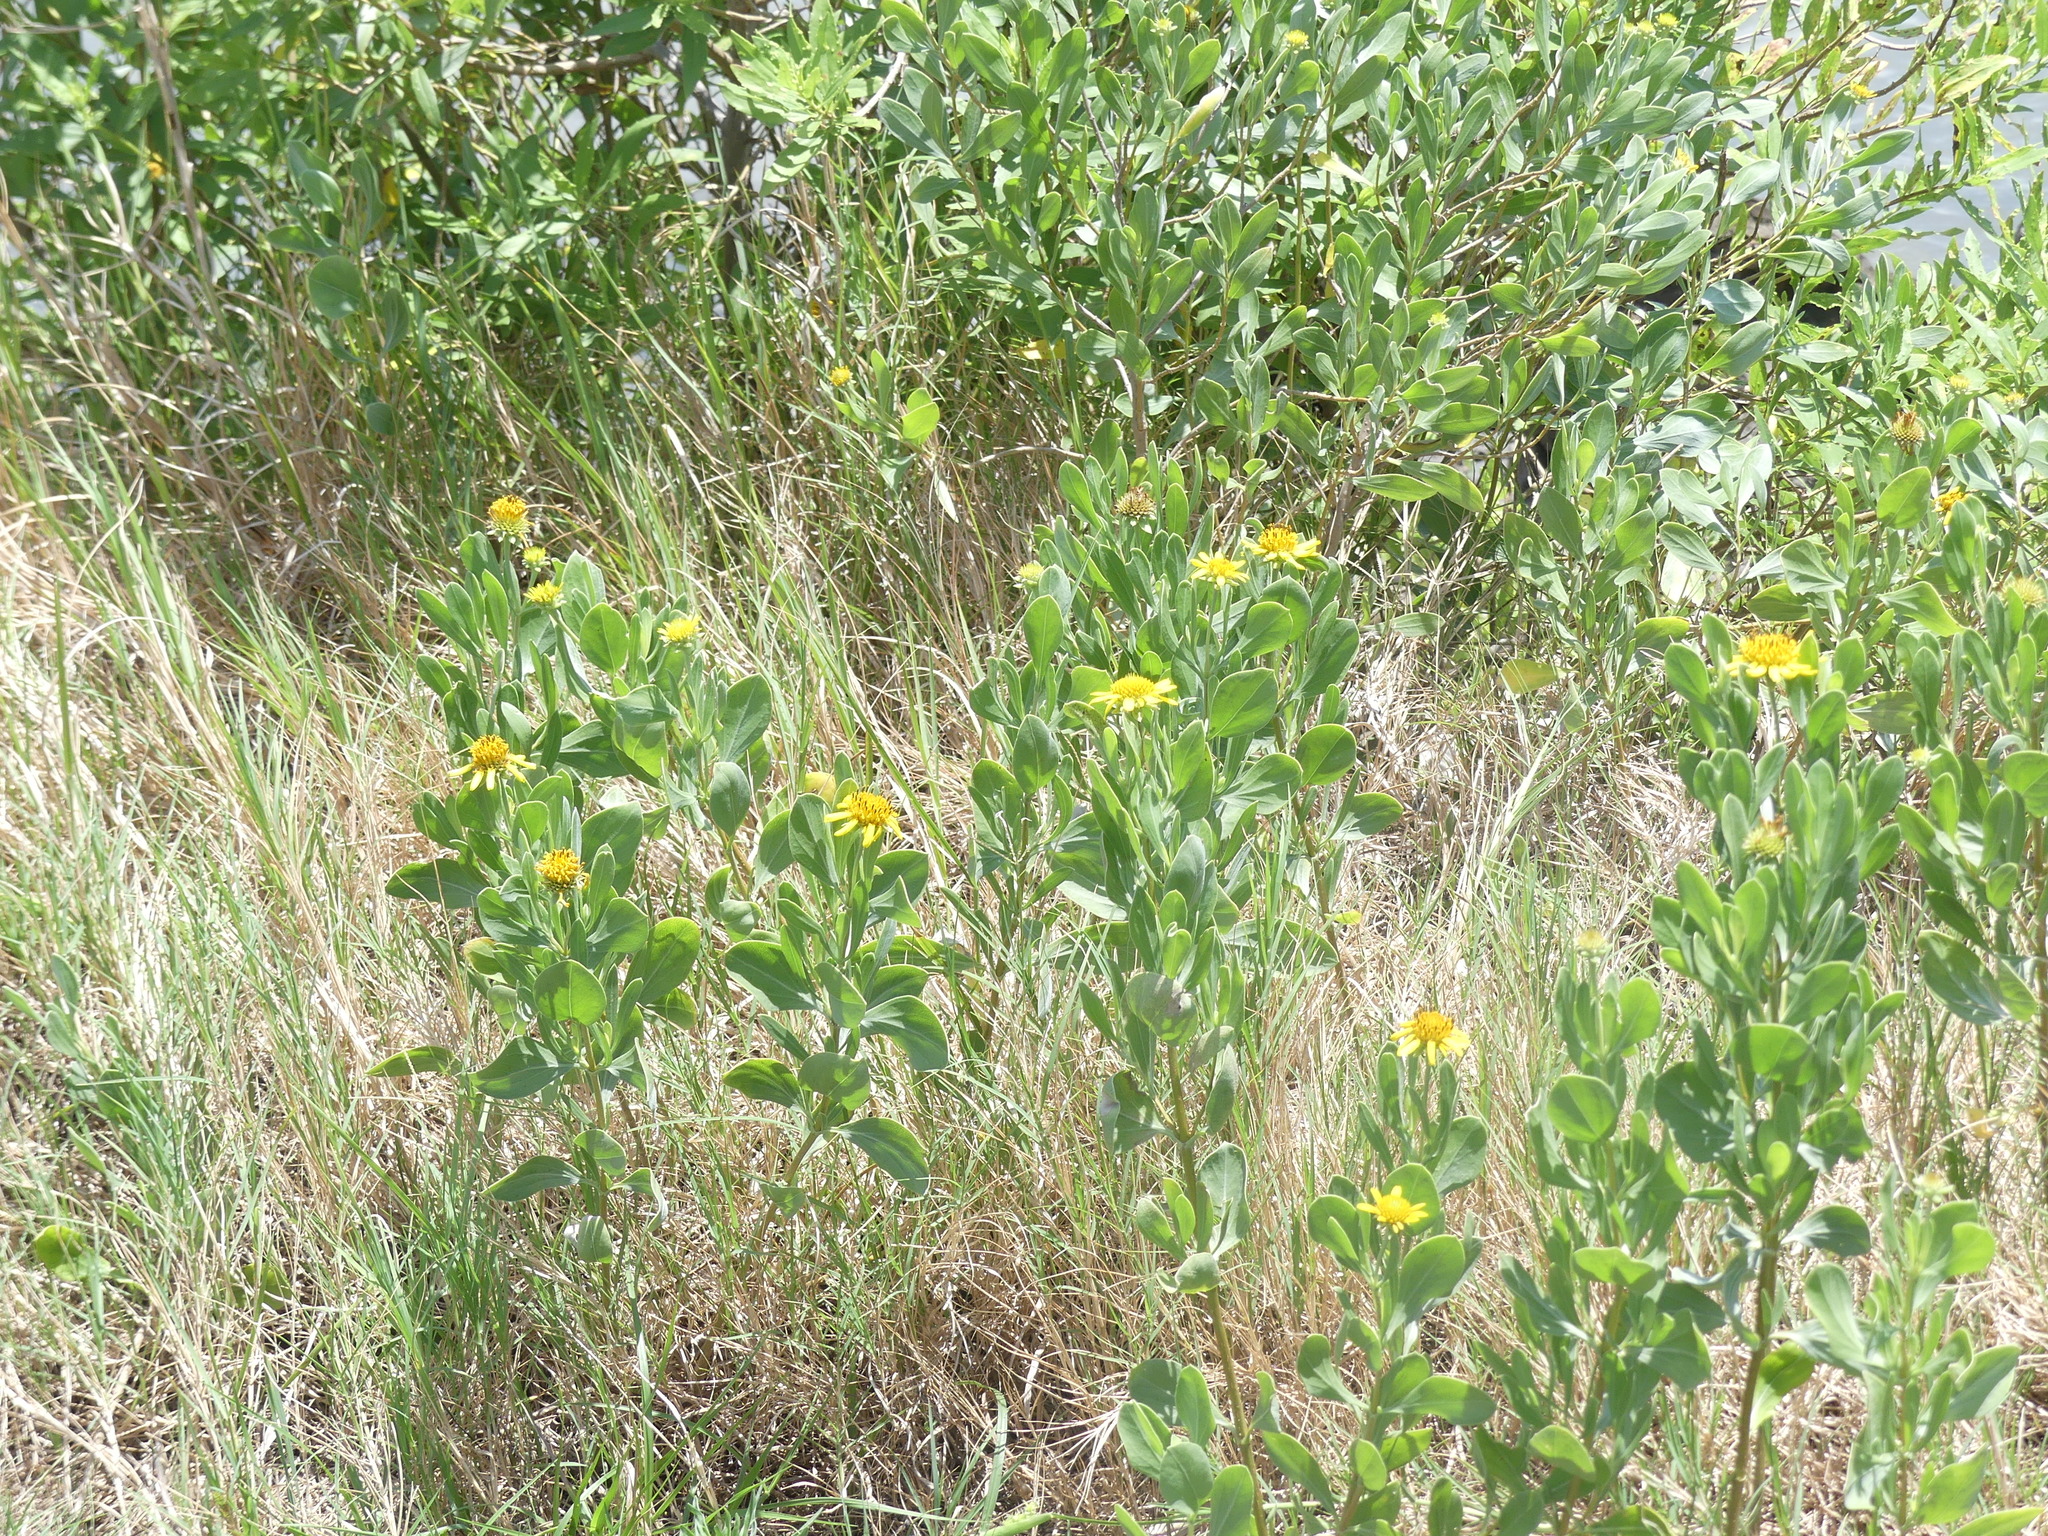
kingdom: Plantae
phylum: Tracheophyta
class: Magnoliopsida
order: Asterales
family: Asteraceae
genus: Borrichia
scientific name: Borrichia frutescens
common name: Sea oxeye
